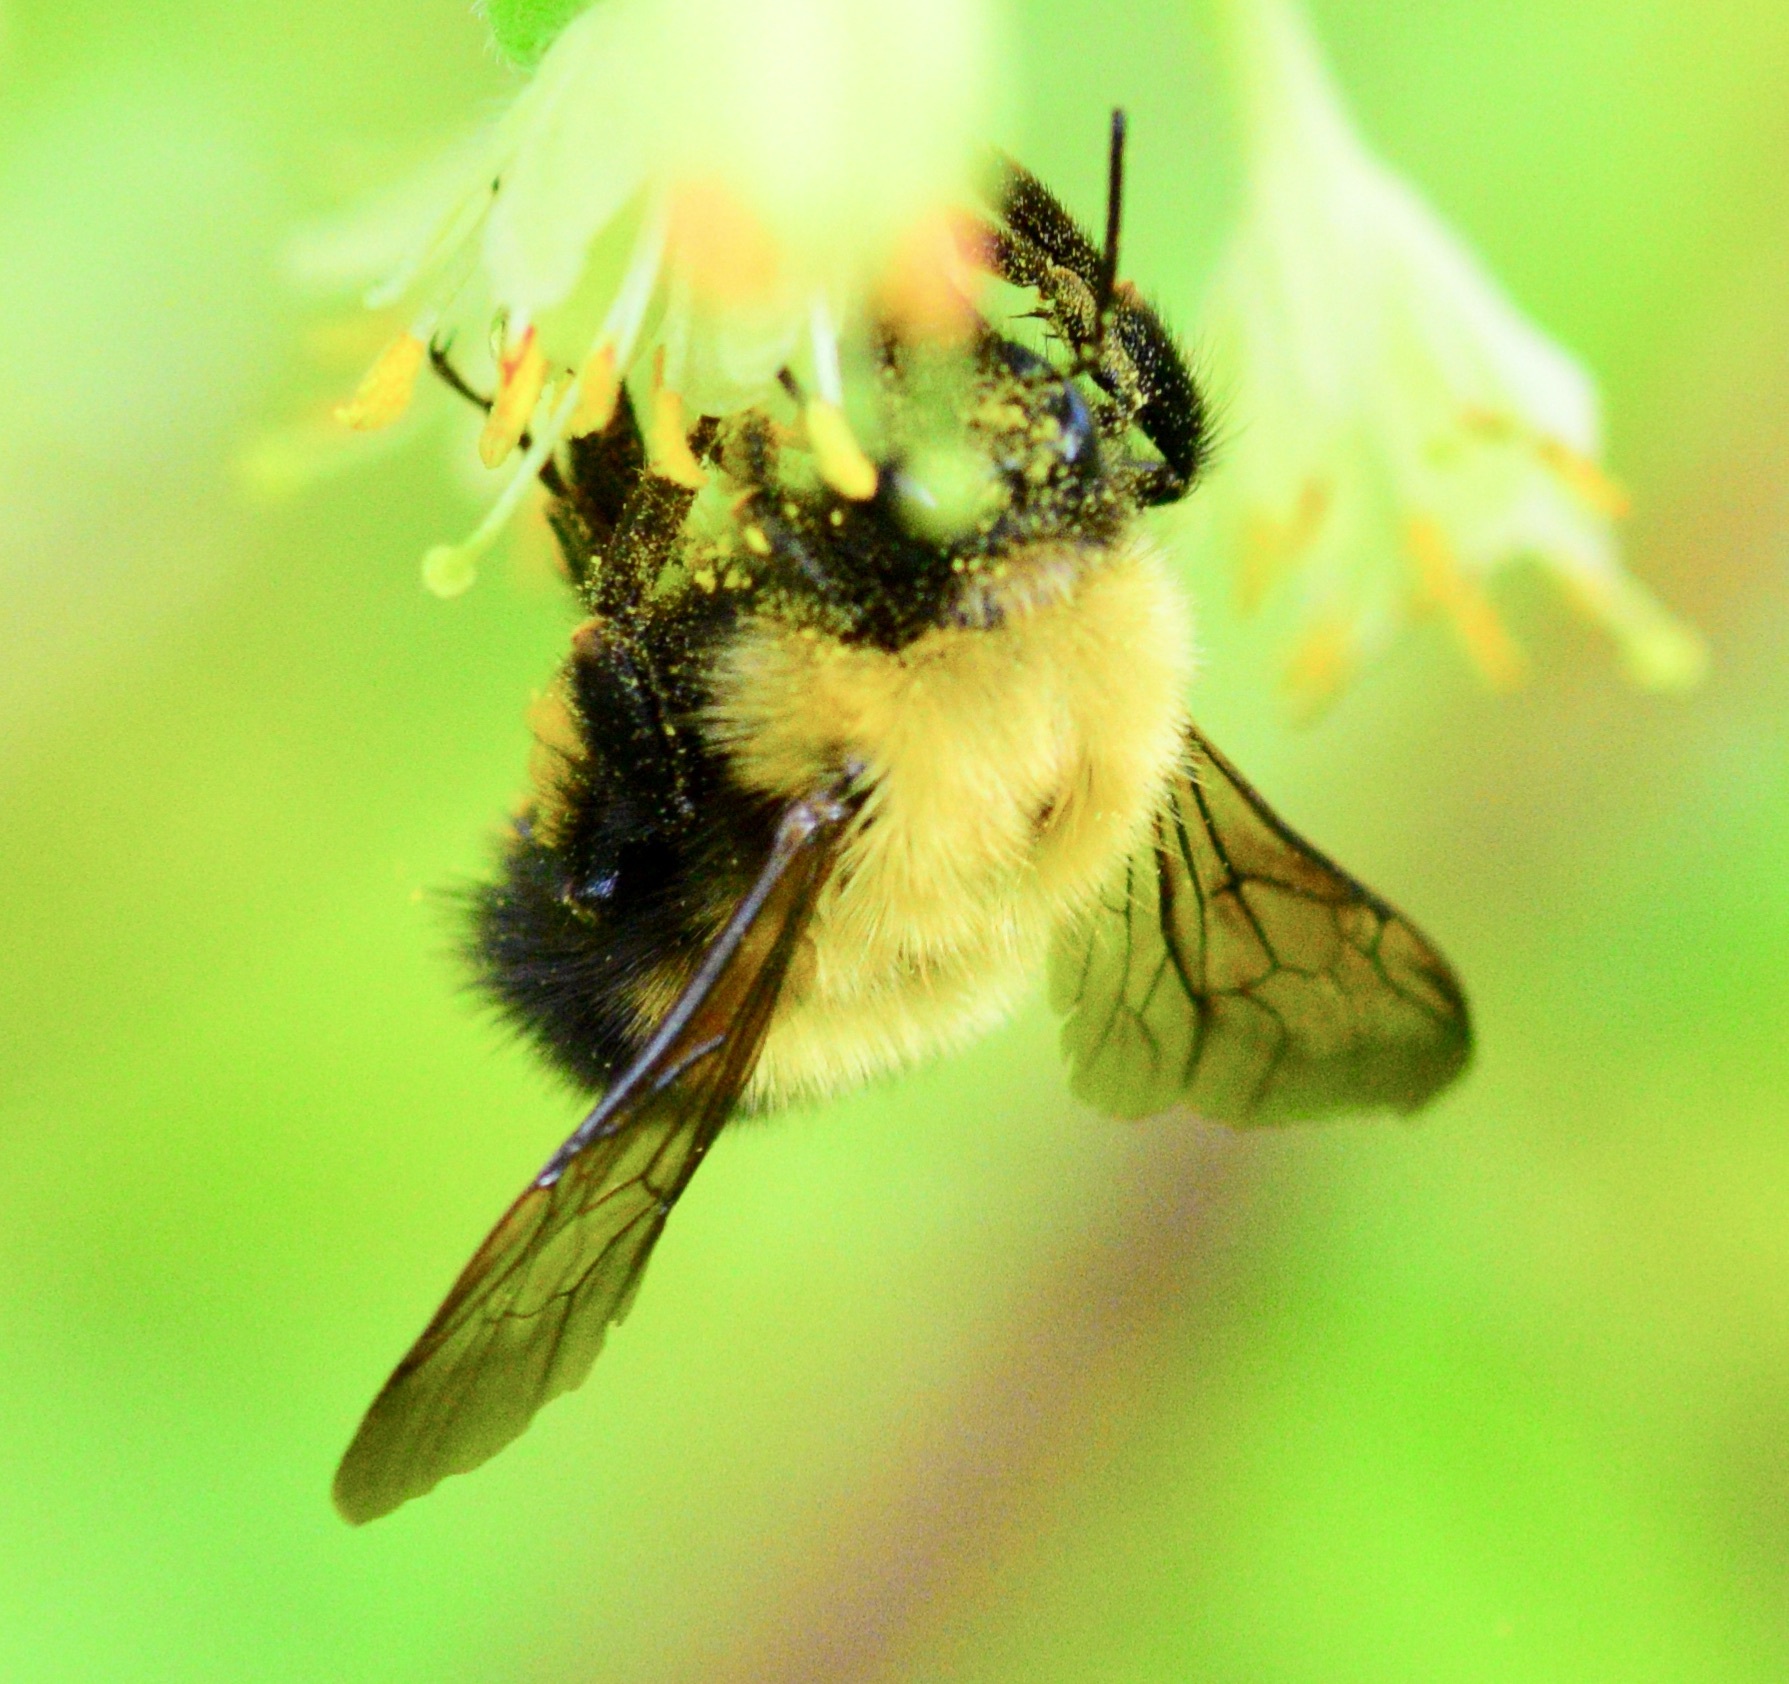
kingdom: Animalia
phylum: Arthropoda
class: Insecta
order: Hymenoptera
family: Apidae
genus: Bombus
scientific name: Bombus perplexus
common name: Confusing bumble bee
